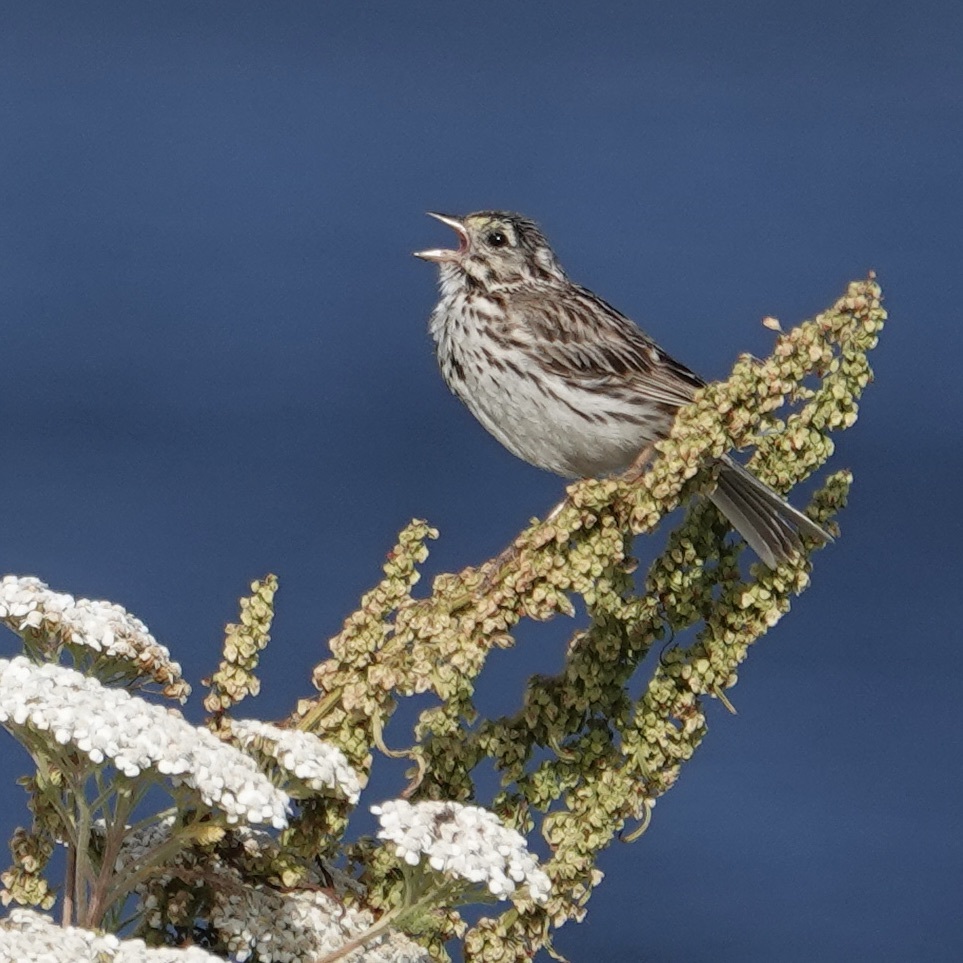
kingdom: Animalia
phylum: Chordata
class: Aves
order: Passeriformes
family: Passerellidae
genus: Passerculus
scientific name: Passerculus sandwichensis
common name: Savannah sparrow
